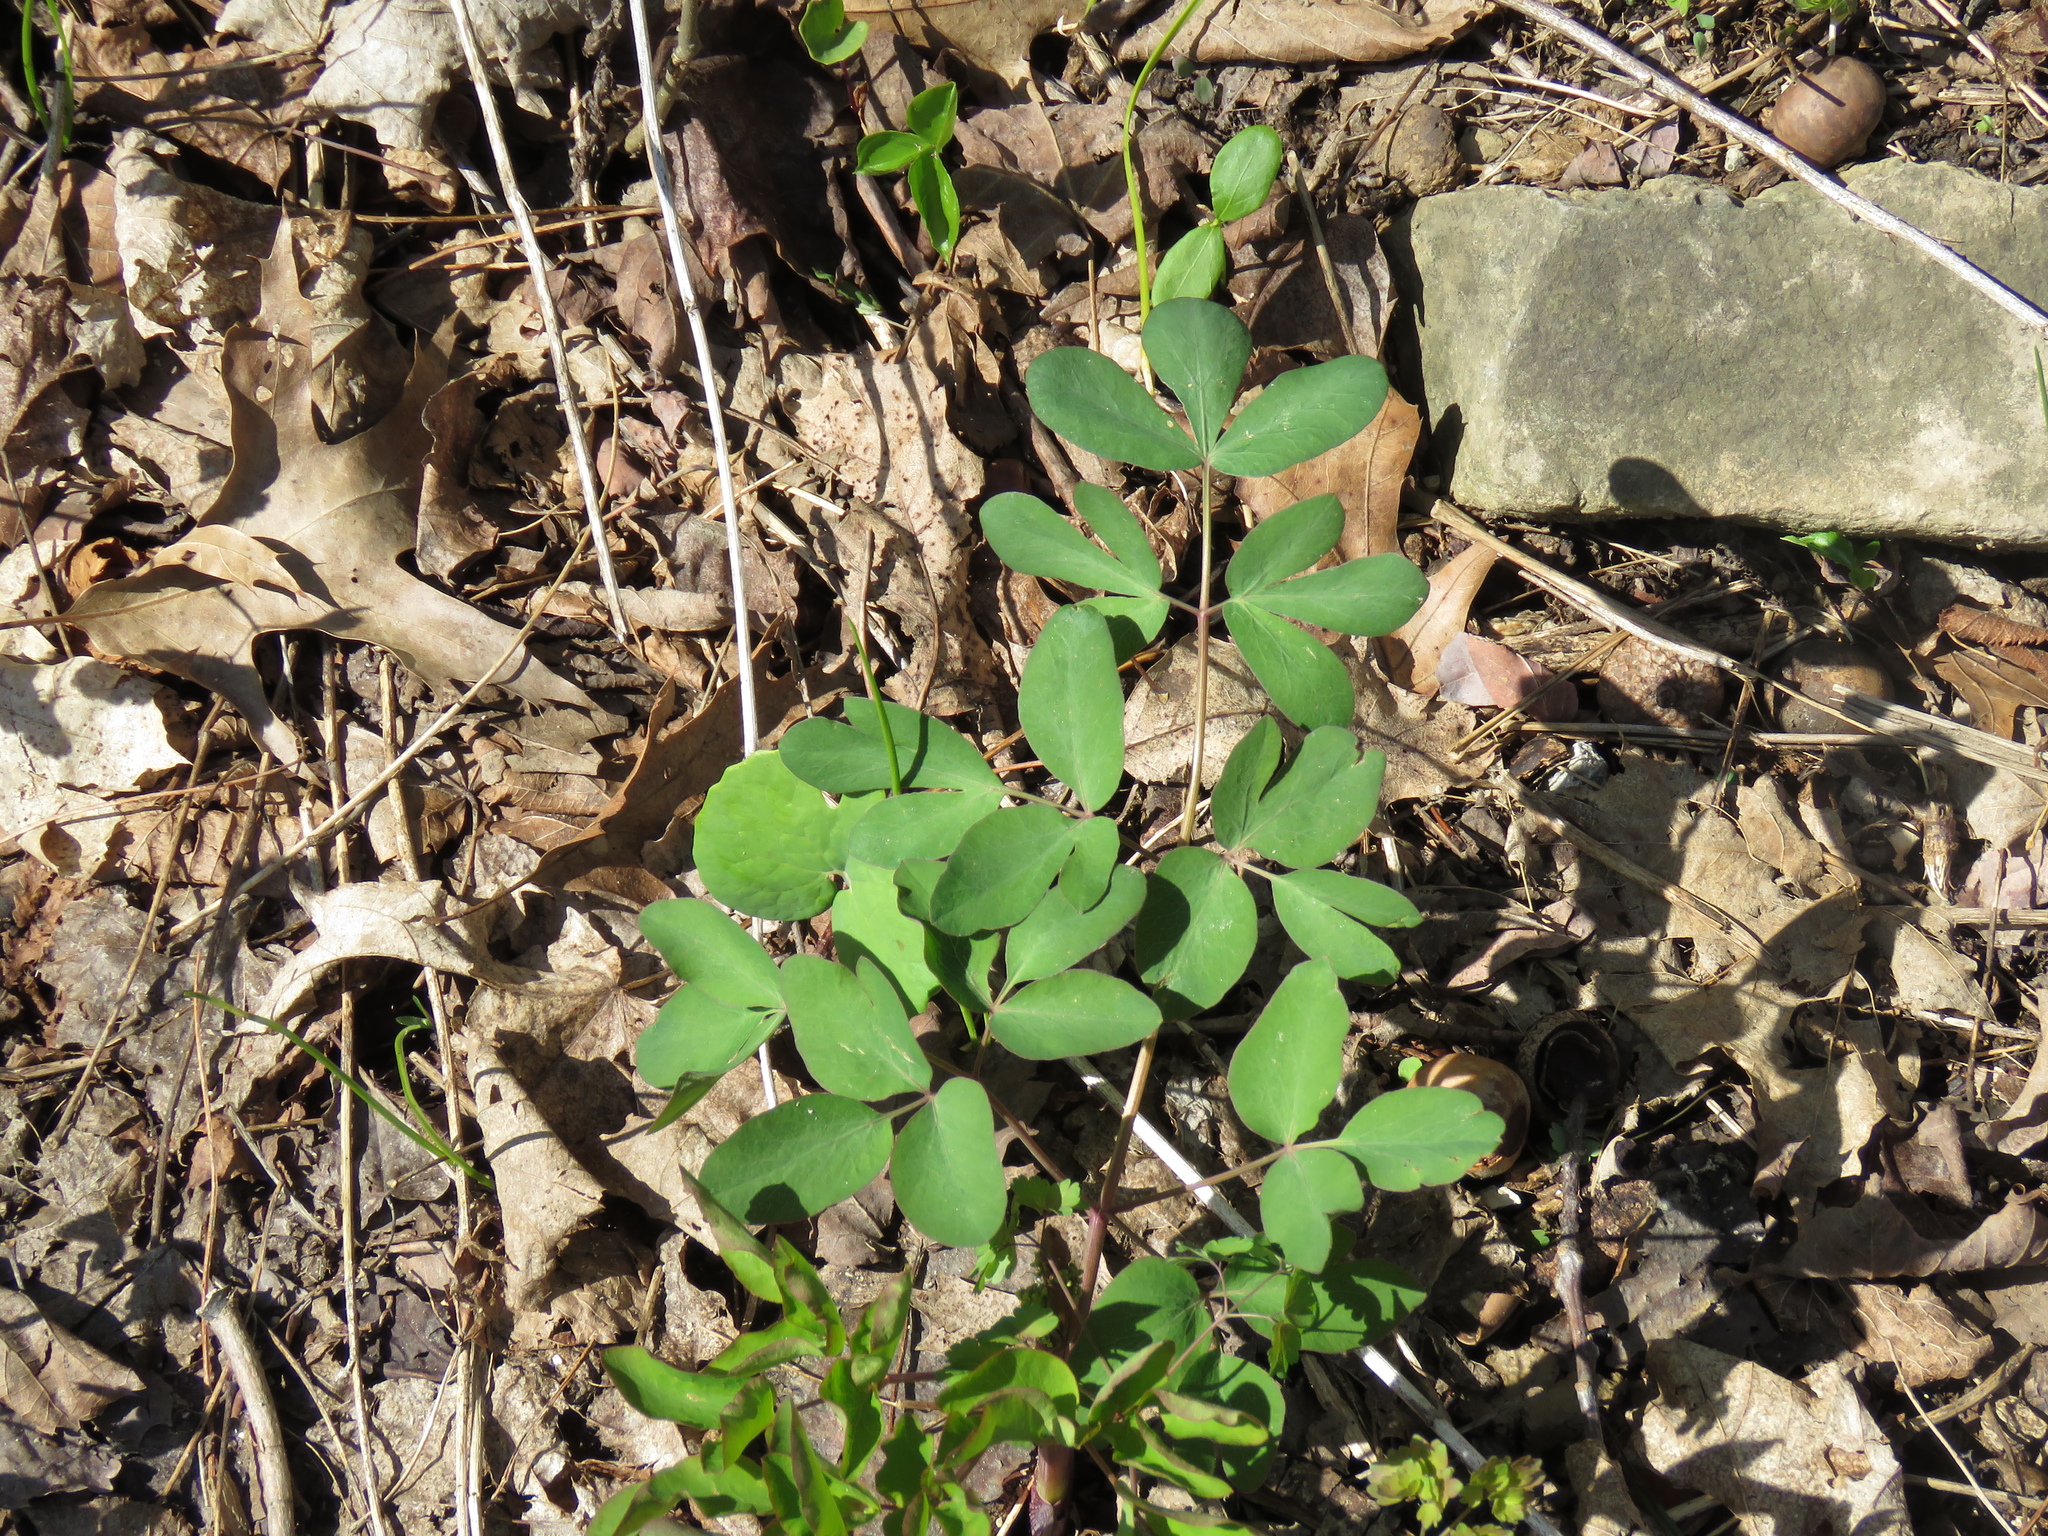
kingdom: Plantae
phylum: Tracheophyta
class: Magnoliopsida
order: Apiales
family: Apiaceae
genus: Taenidia
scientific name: Taenidia integerrima
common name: Golden alexander
